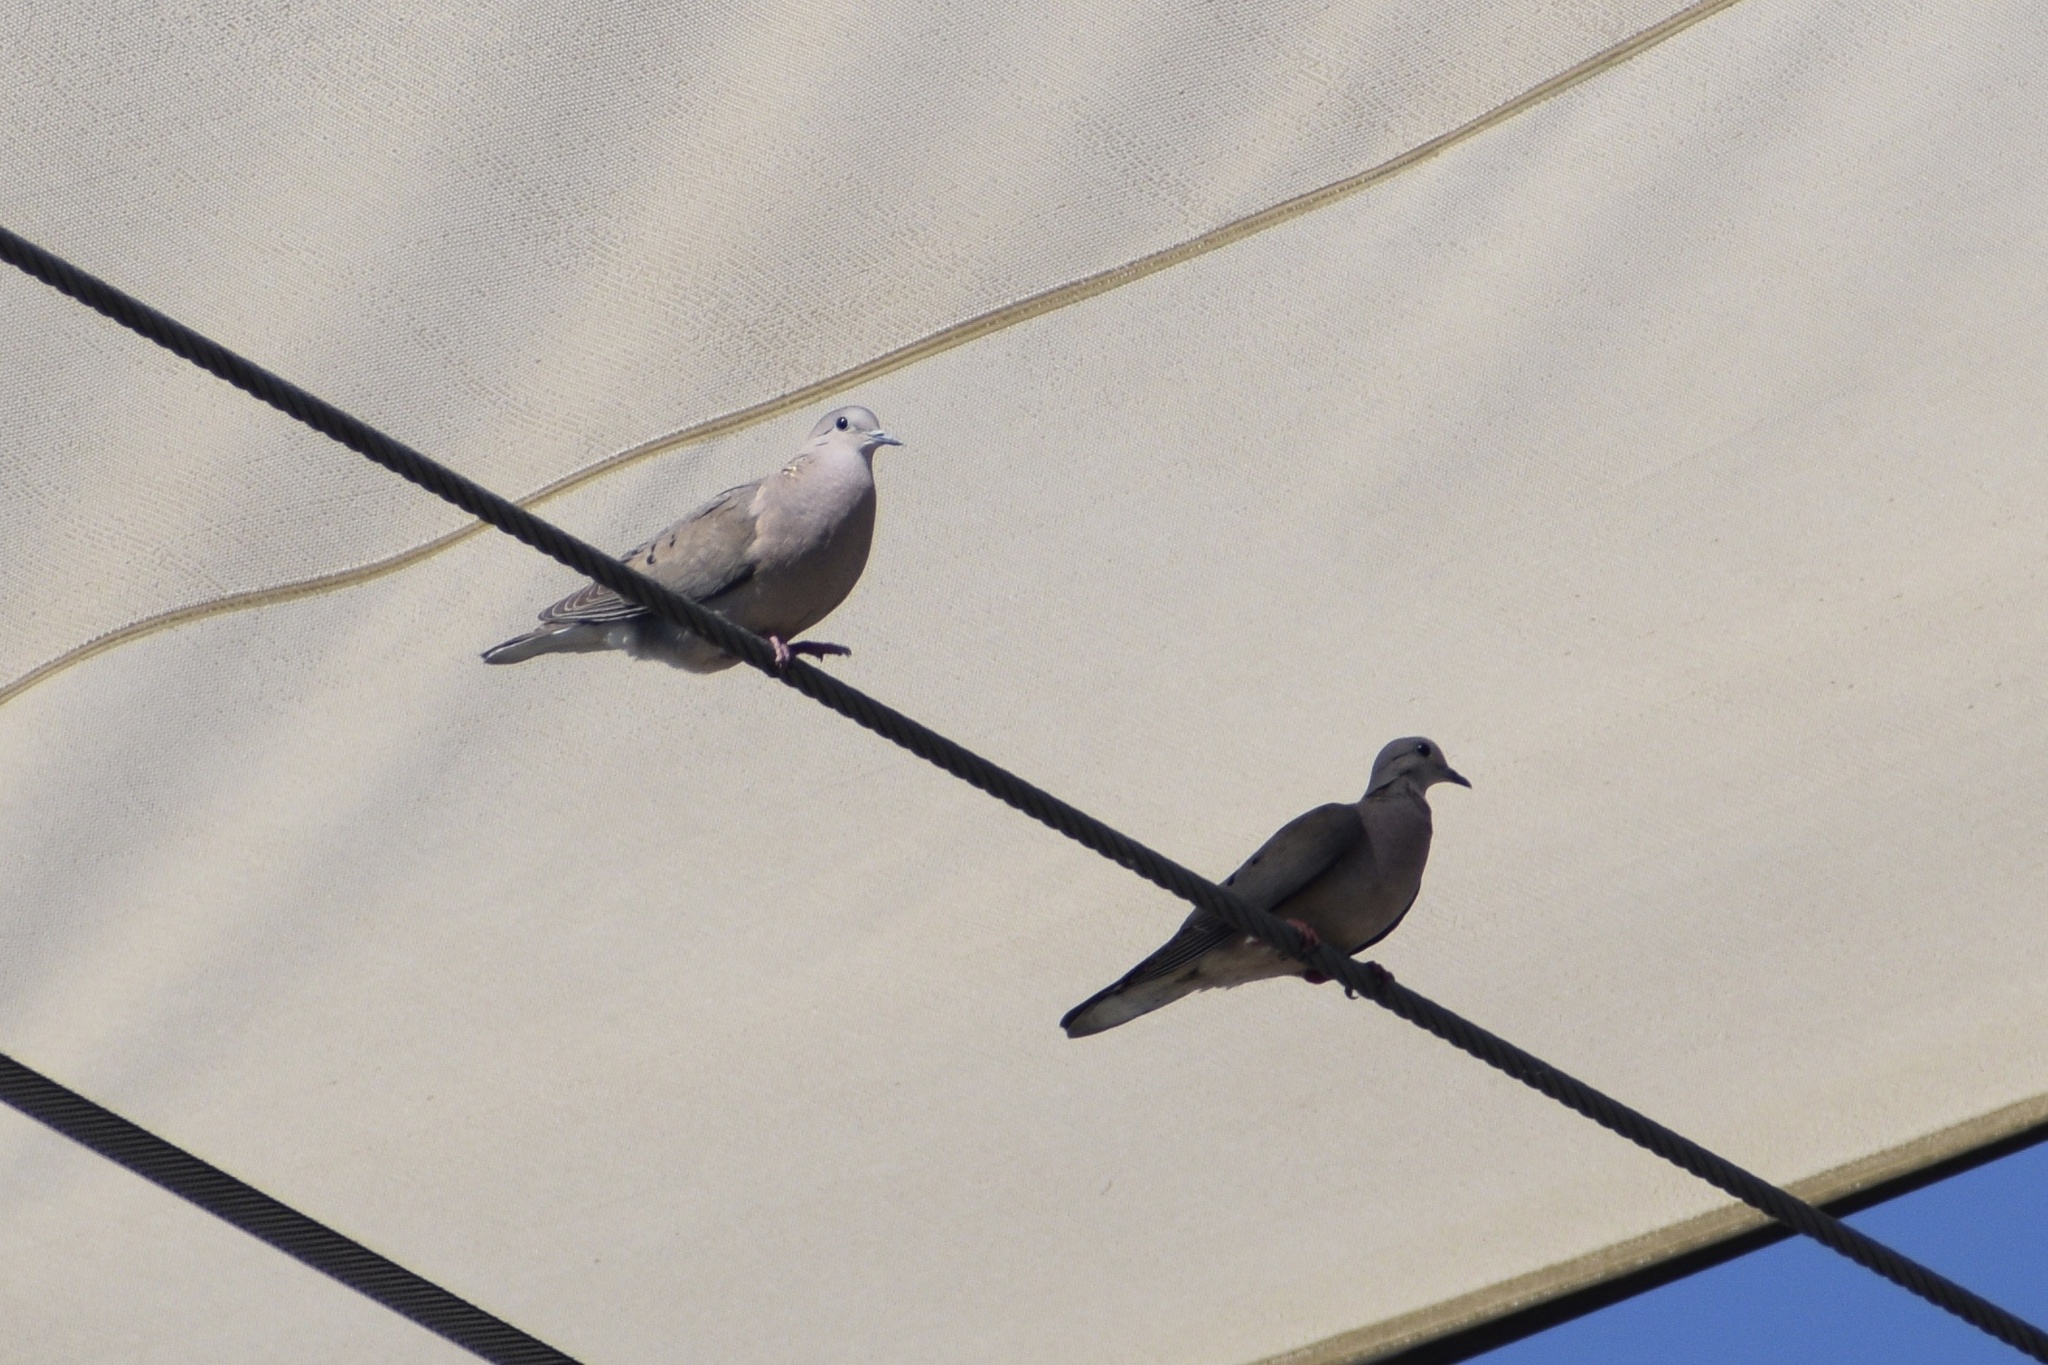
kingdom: Animalia
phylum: Chordata
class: Aves
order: Columbiformes
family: Columbidae
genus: Zenaida
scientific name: Zenaida auriculata
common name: Eared dove
